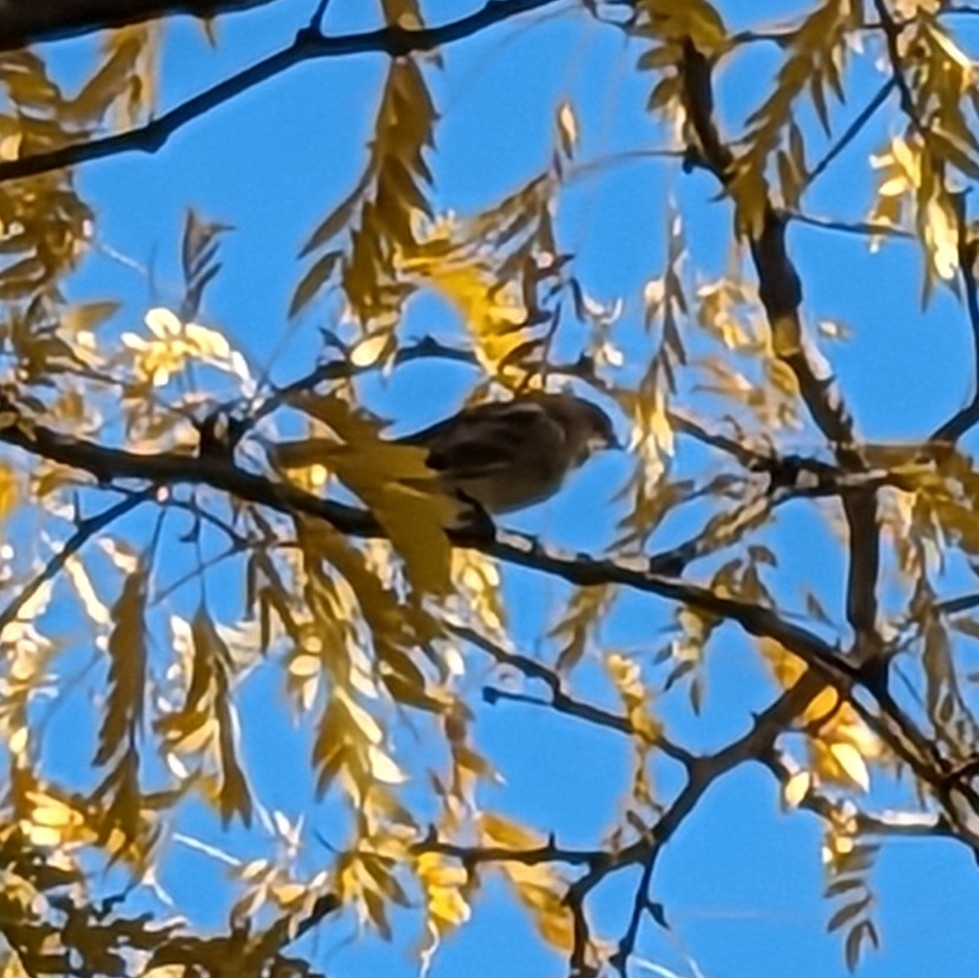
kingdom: Animalia
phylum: Chordata
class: Aves
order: Passeriformes
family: Parulidae
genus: Setophaga
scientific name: Setophaga coronata
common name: Myrtle warbler
